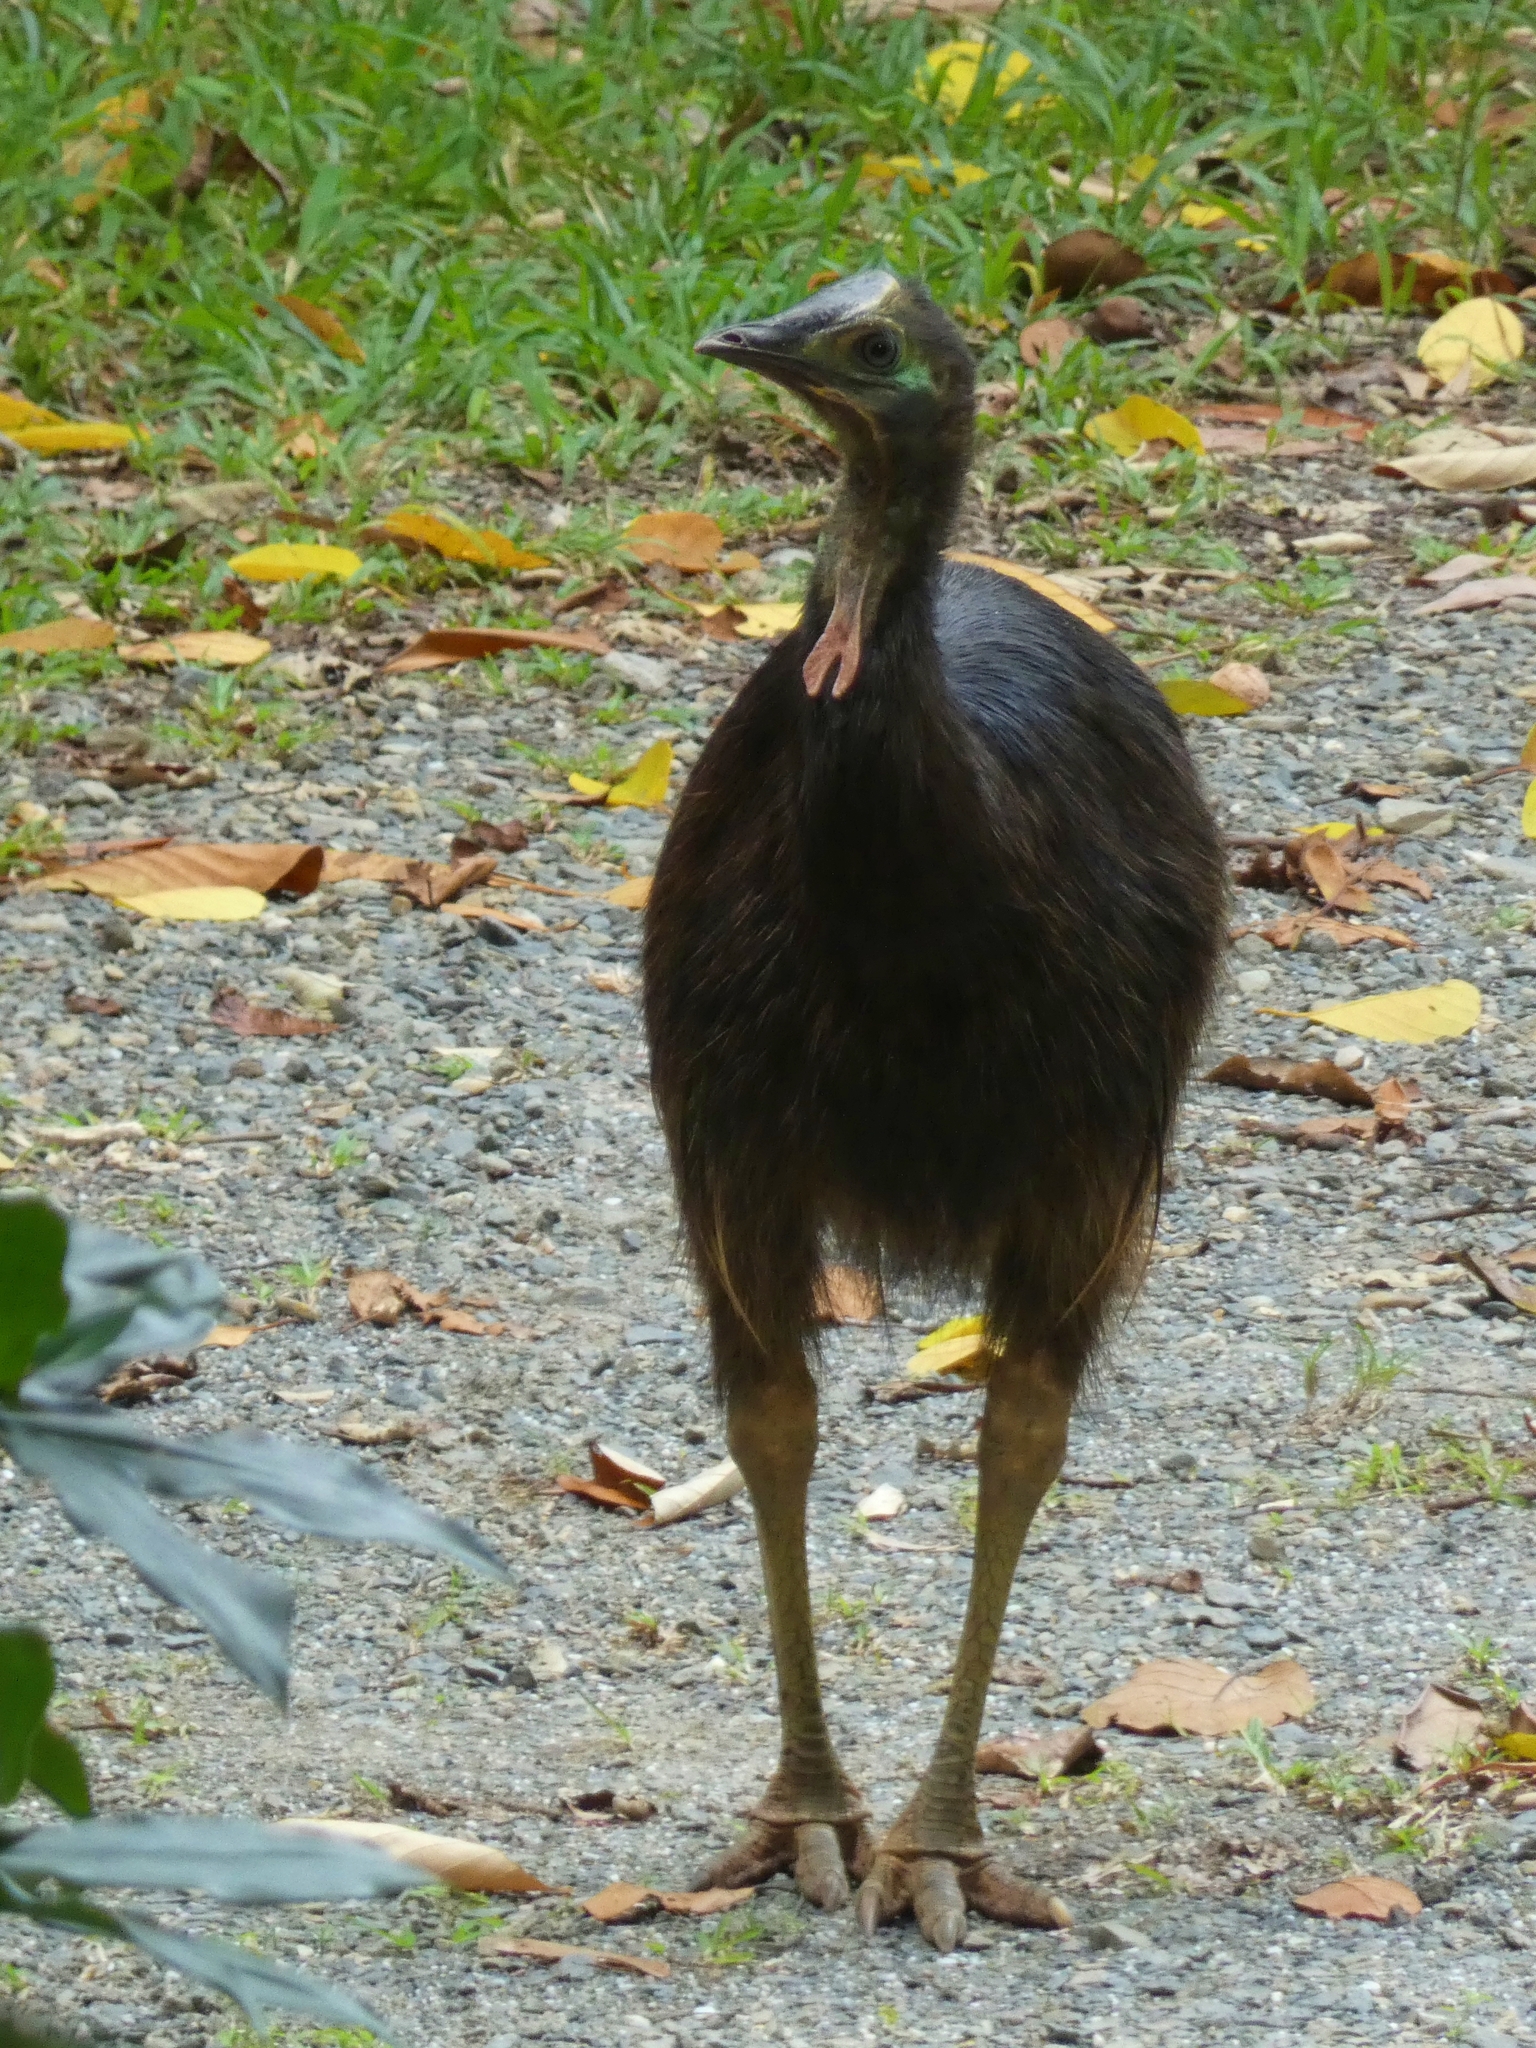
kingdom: Animalia
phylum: Chordata
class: Aves
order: Casuariiformes
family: Casuariidae
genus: Casuarius
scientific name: Casuarius casuarius
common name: Southern cassowary
